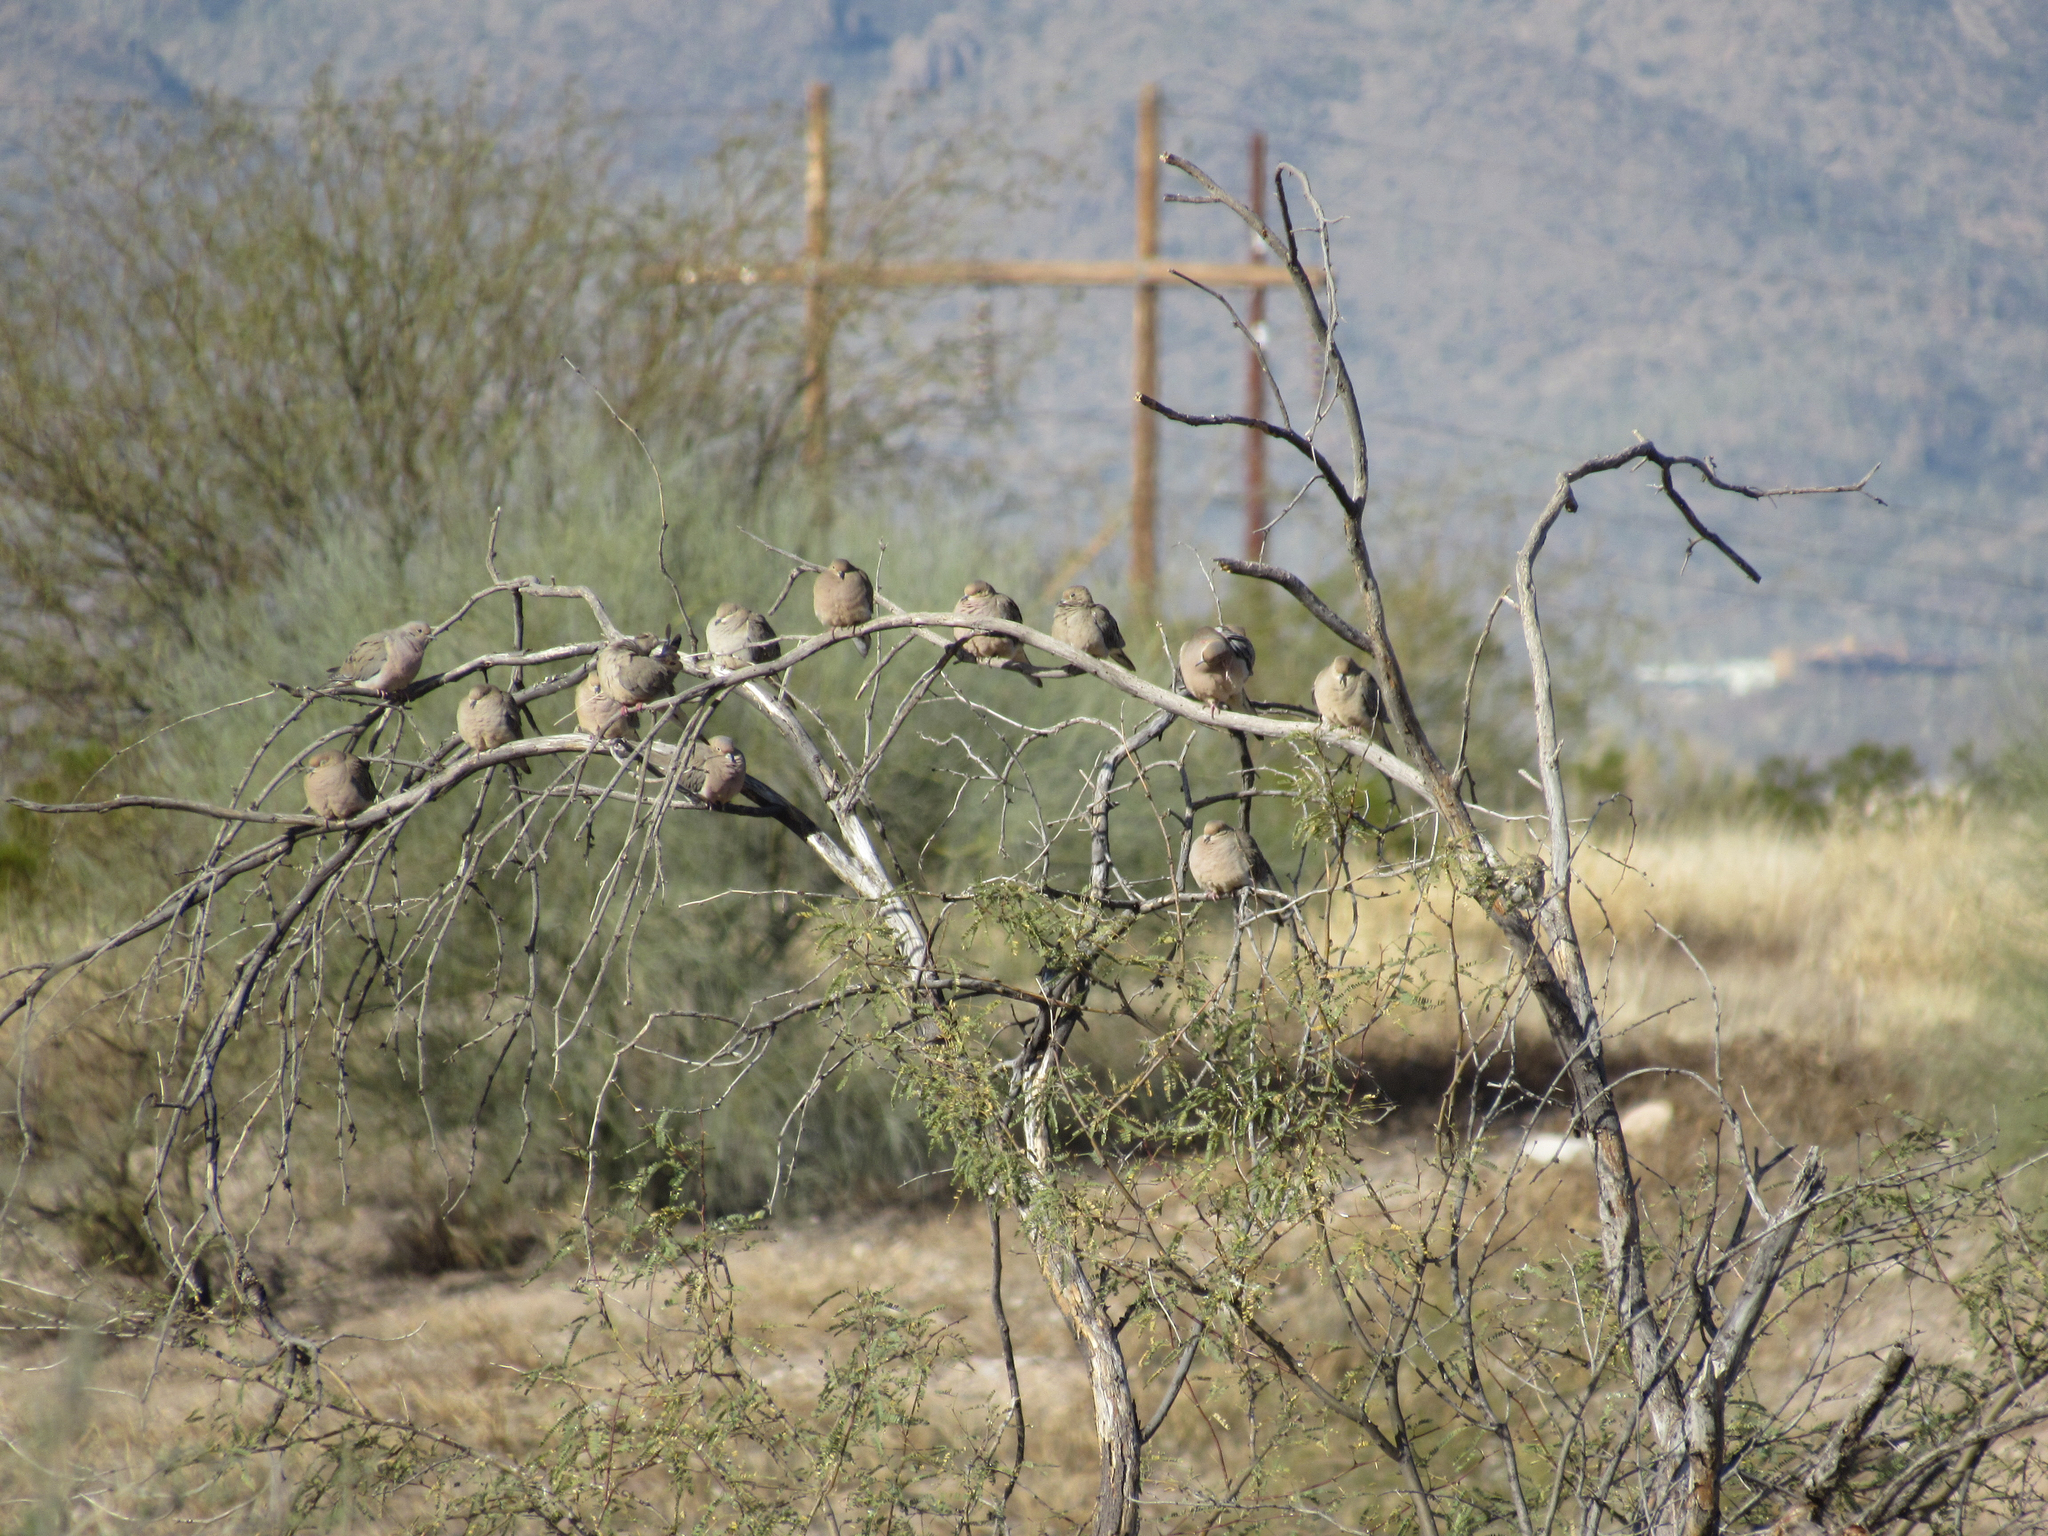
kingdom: Animalia
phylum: Chordata
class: Aves
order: Columbiformes
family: Columbidae
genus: Zenaida
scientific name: Zenaida macroura
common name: Mourning dove
